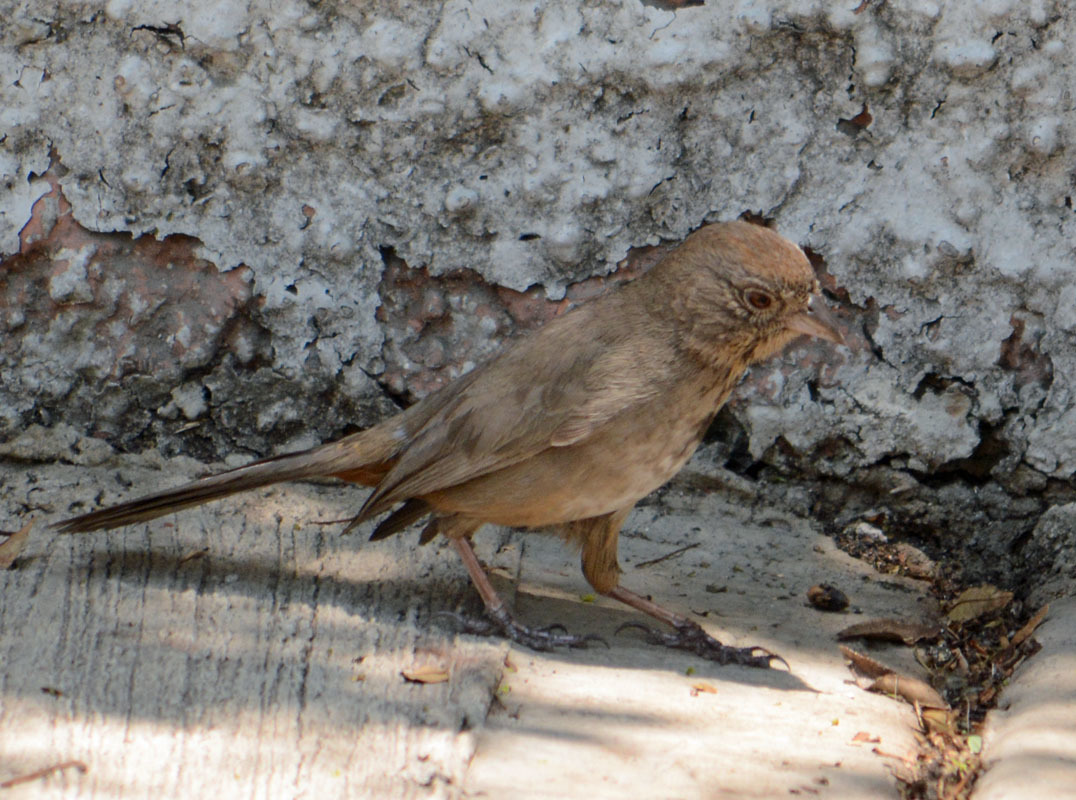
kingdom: Animalia
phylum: Chordata
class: Aves
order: Passeriformes
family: Passerellidae
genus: Melozone
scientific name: Melozone fusca
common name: Canyon towhee
